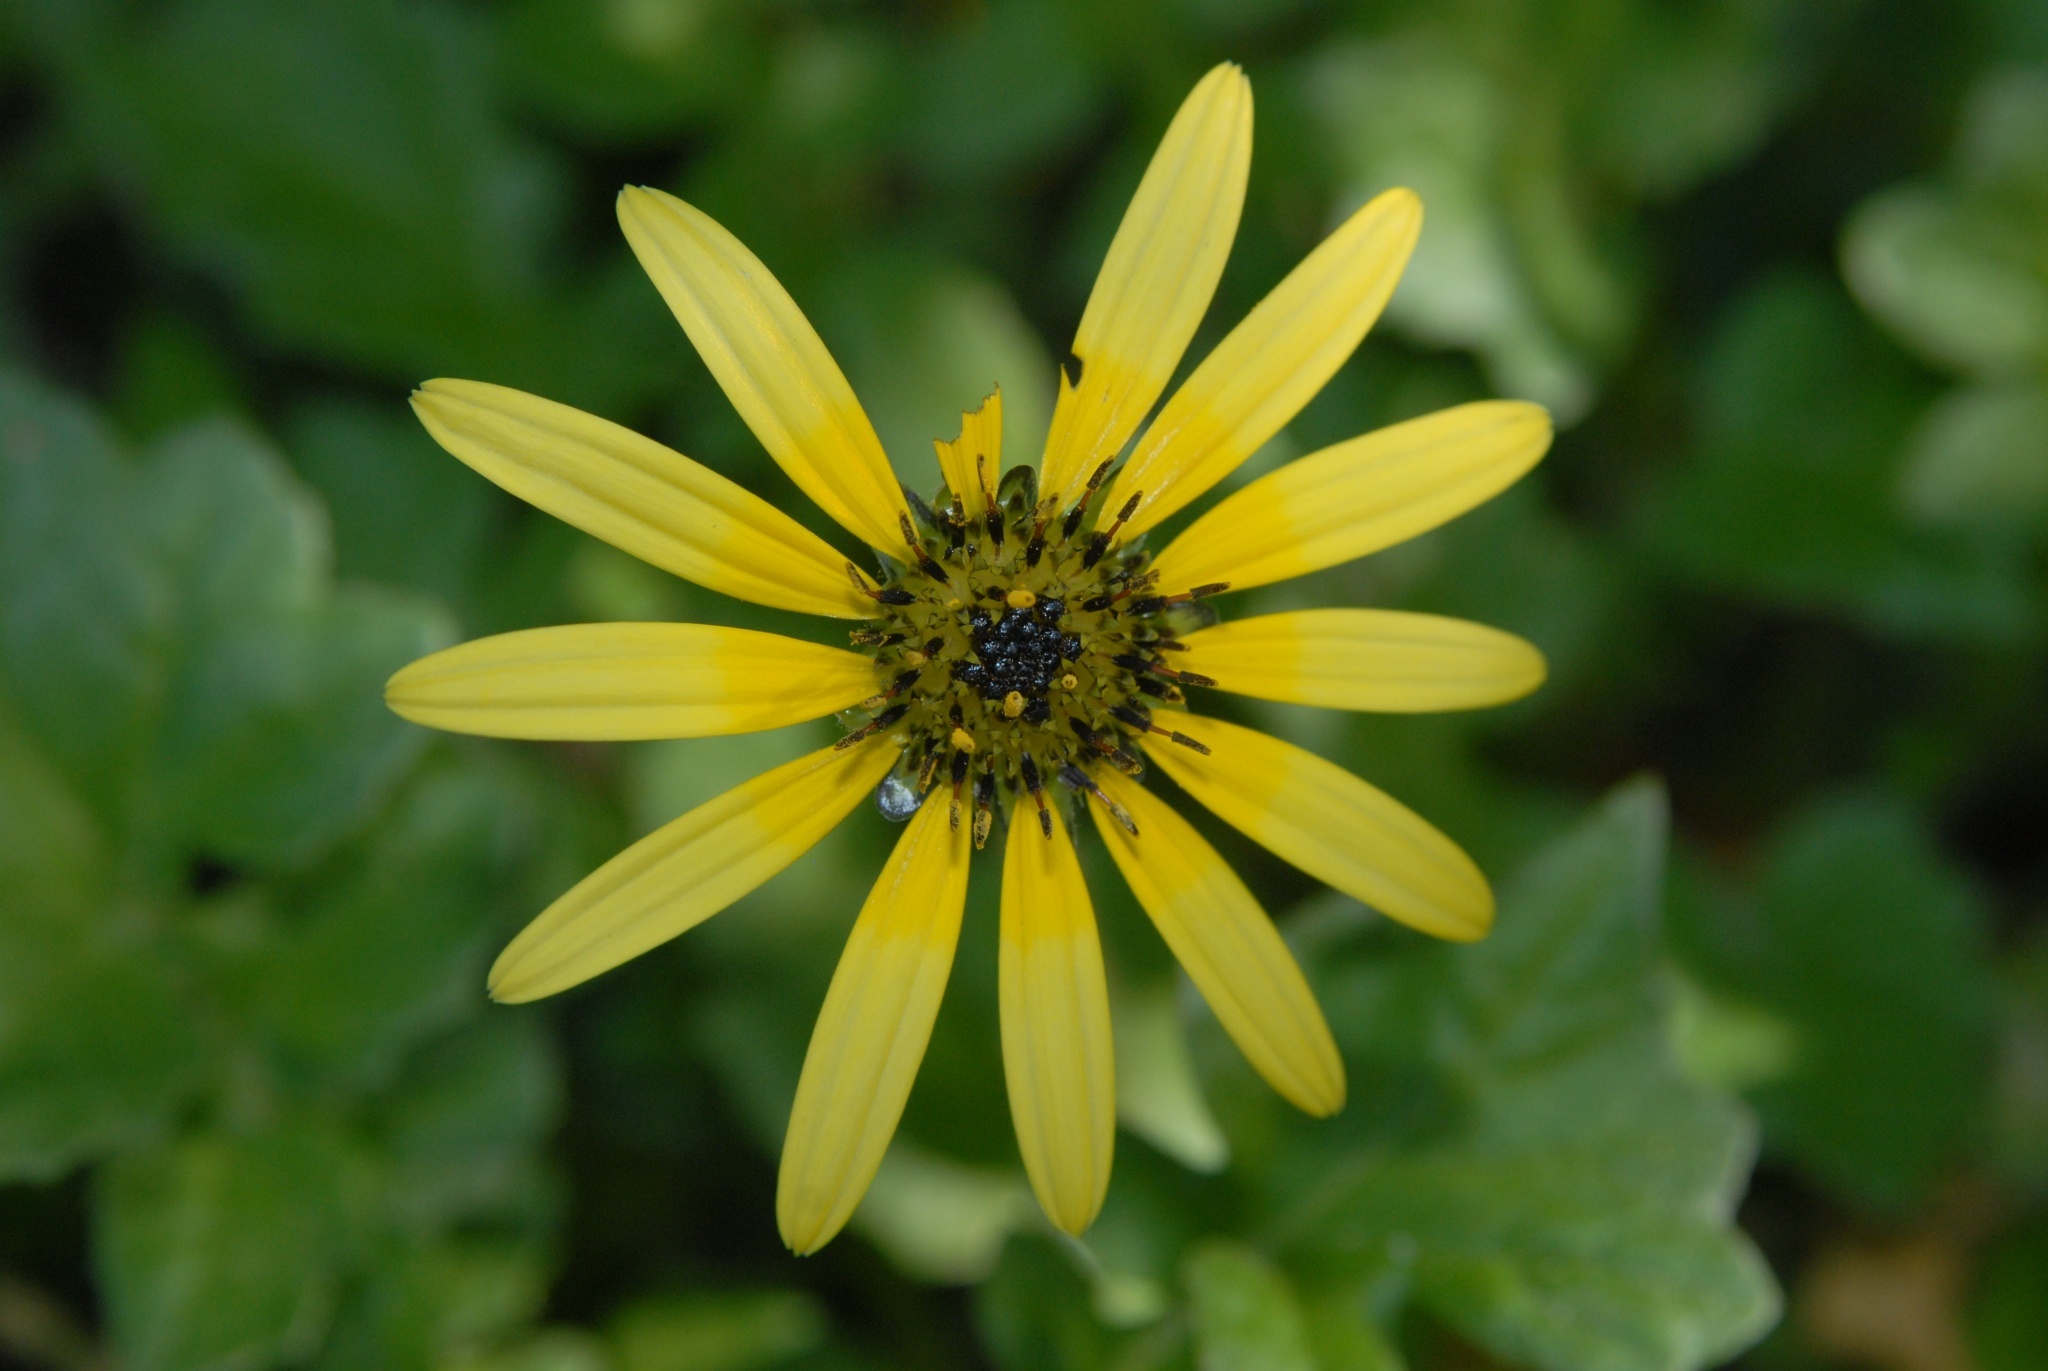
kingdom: Plantae
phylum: Tracheophyta
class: Magnoliopsida
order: Asterales
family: Asteraceae
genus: Arctotheca
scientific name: Arctotheca calendula
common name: Capeweed
